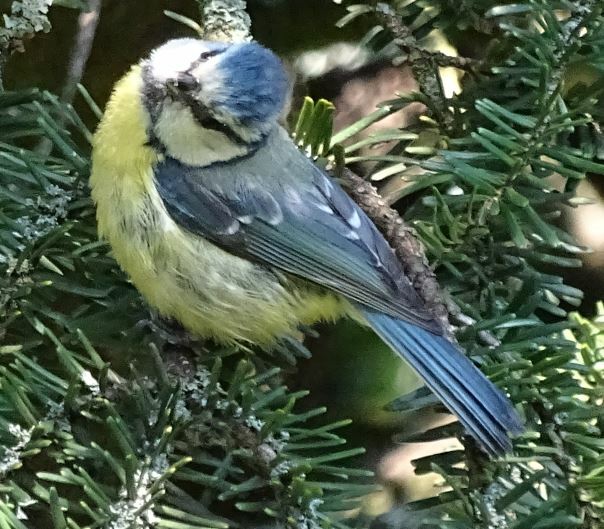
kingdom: Animalia
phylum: Chordata
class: Aves
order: Passeriformes
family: Paridae
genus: Cyanistes
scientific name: Cyanistes caeruleus
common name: Eurasian blue tit
